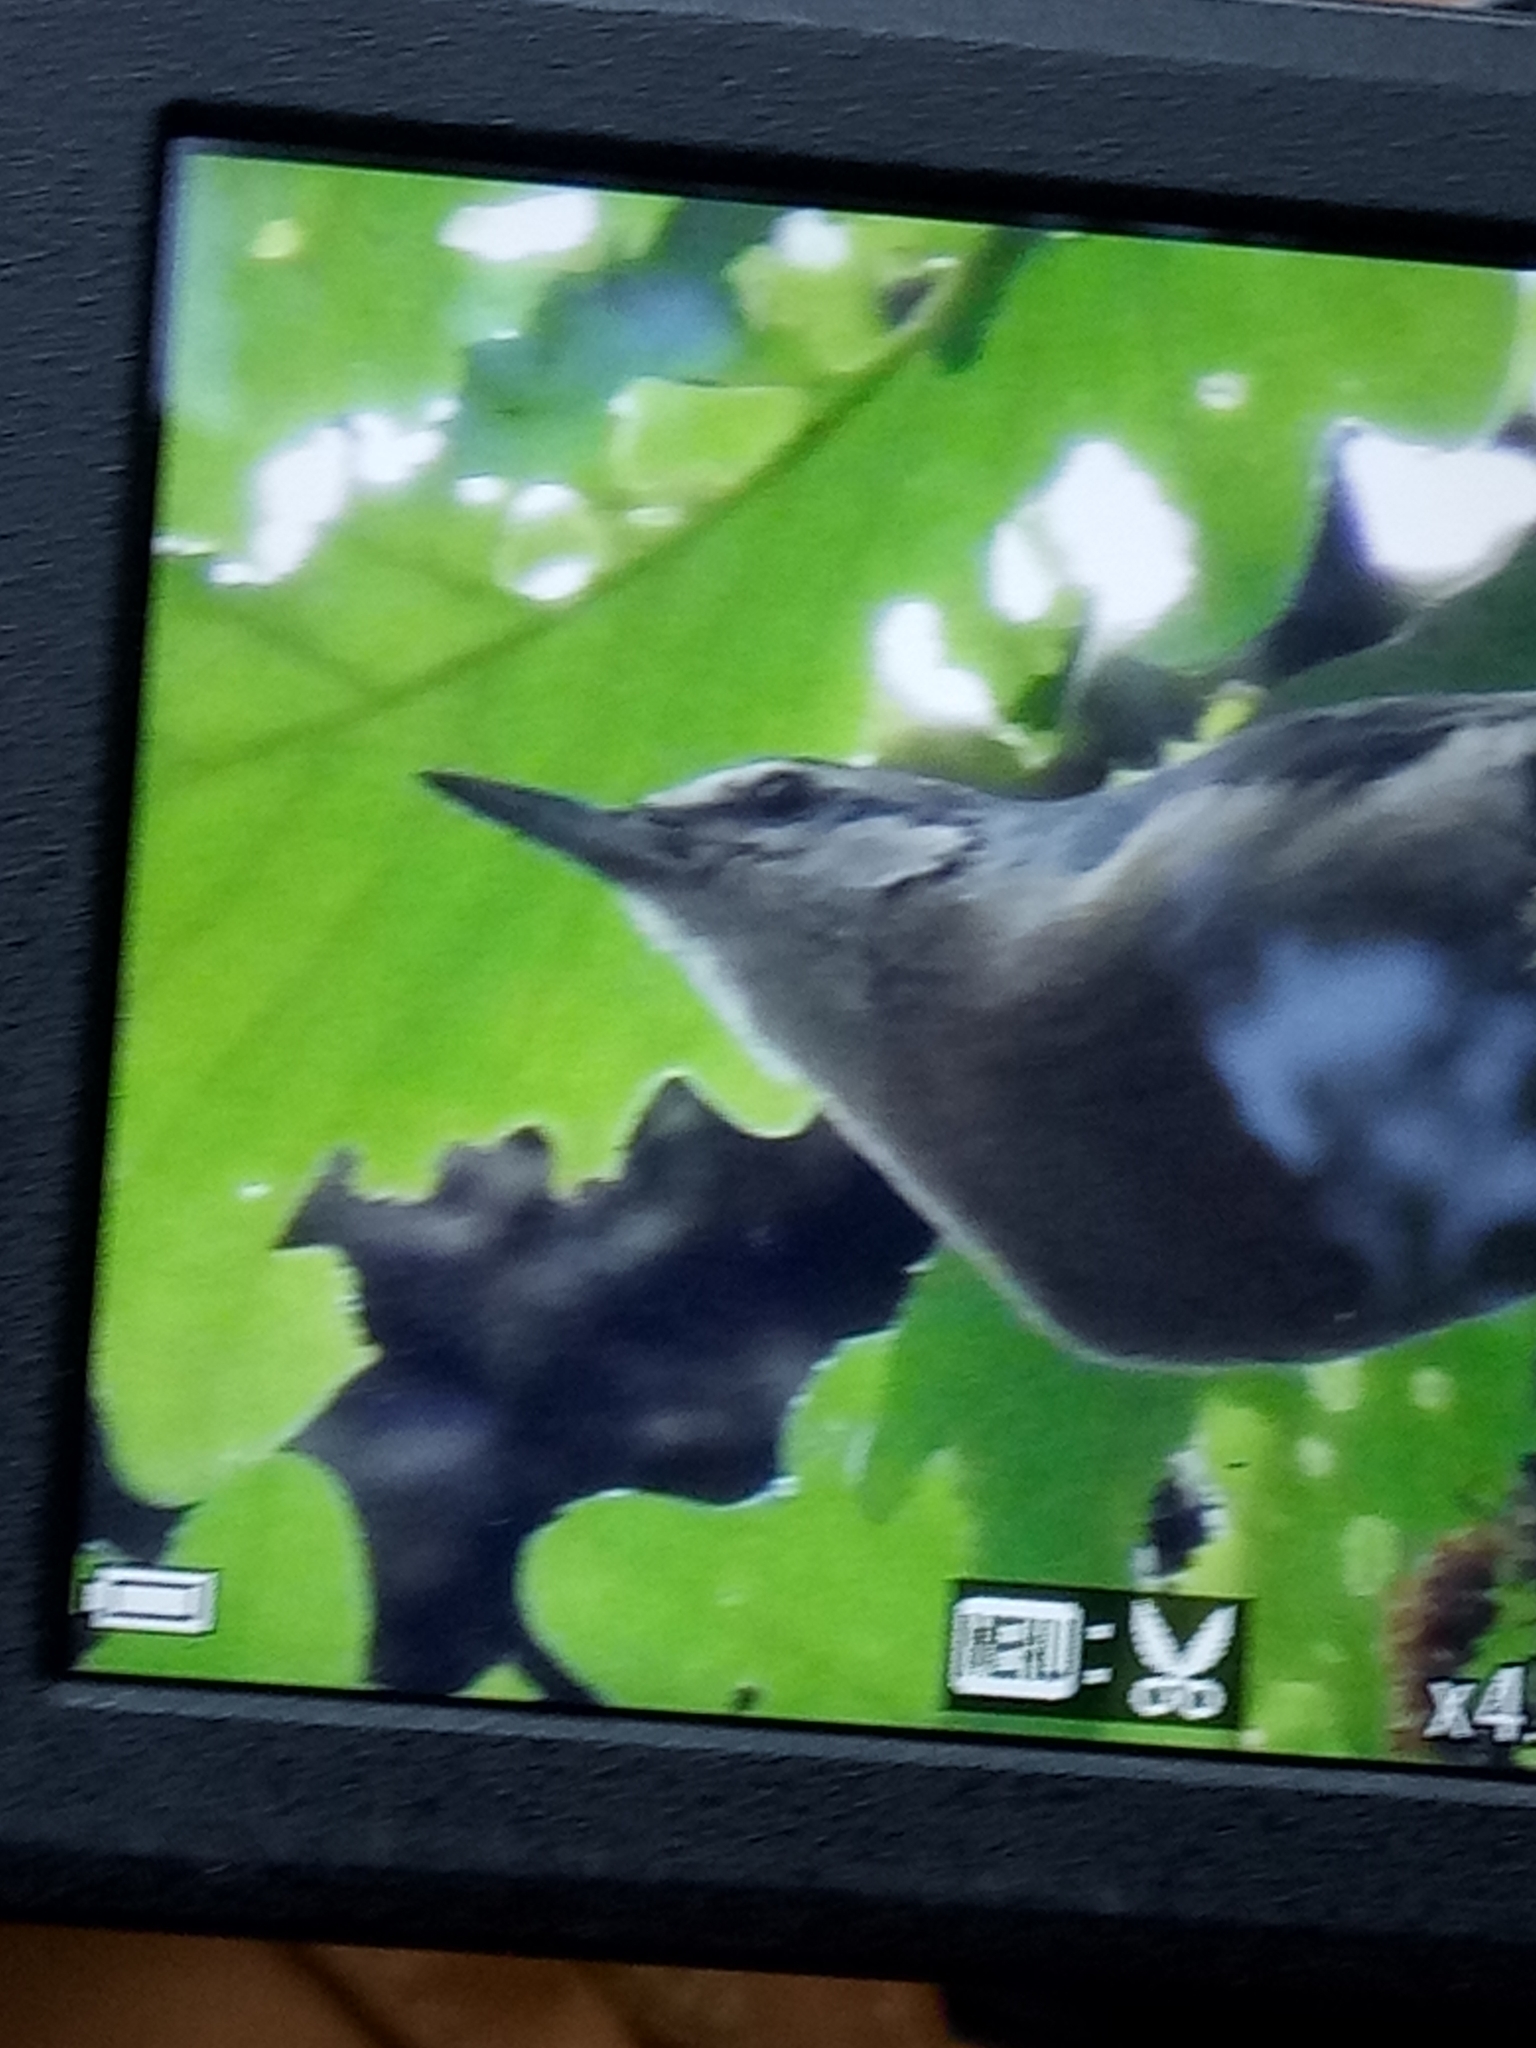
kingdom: Animalia
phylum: Chordata
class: Aves
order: Passeriformes
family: Sittidae
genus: Sitta
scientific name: Sitta ledanti
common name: Algerian nuthatch
